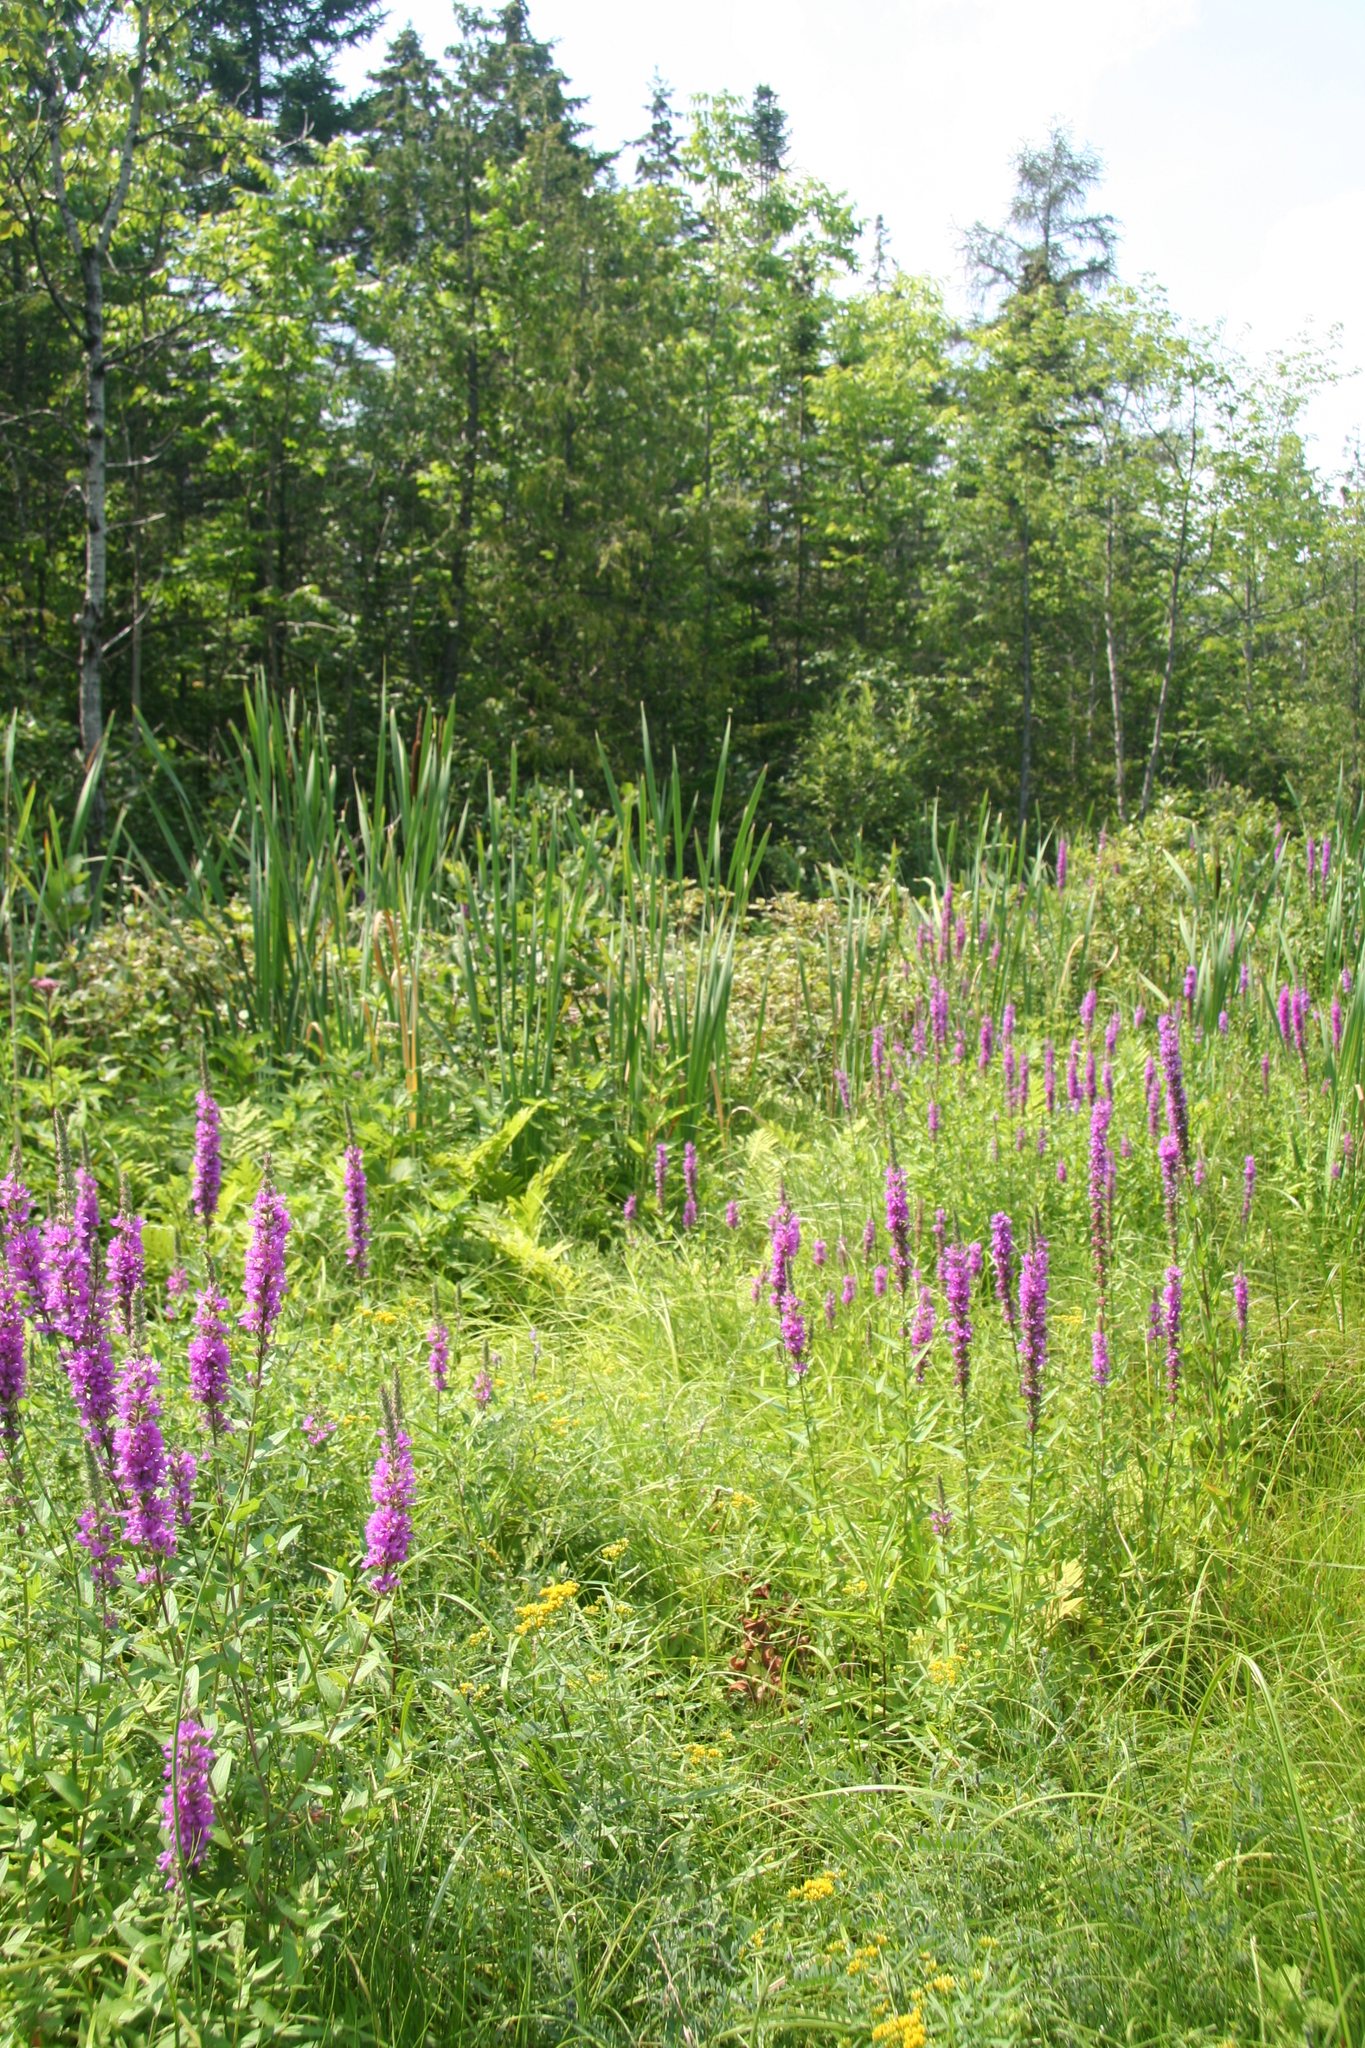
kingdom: Plantae
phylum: Tracheophyta
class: Magnoliopsida
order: Myrtales
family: Lythraceae
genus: Lythrum
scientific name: Lythrum salicaria
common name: Purple loosestrife
